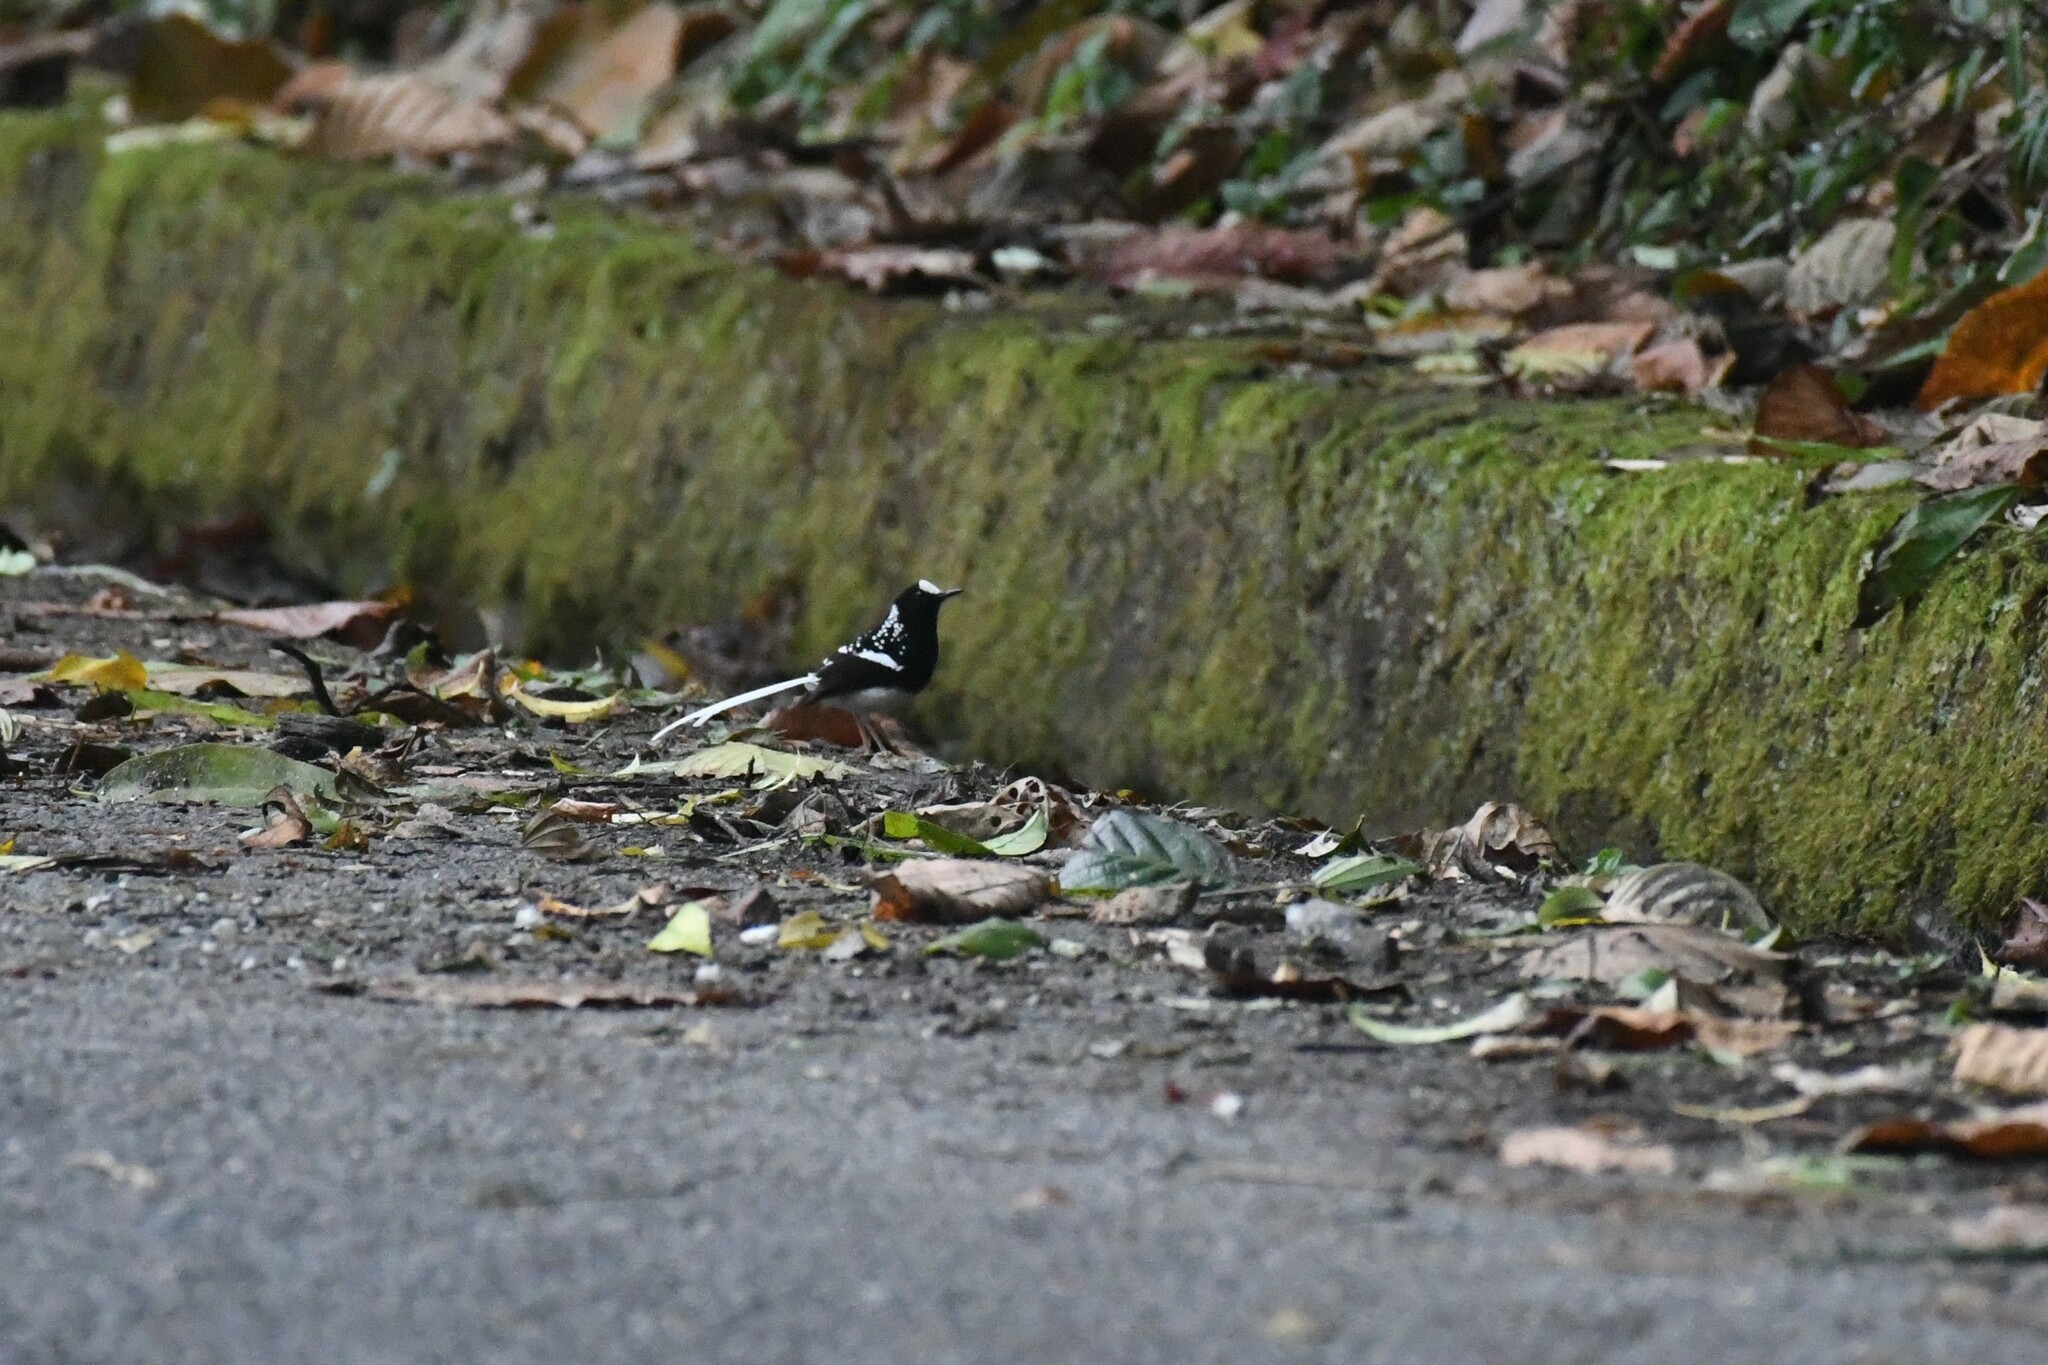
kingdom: Animalia
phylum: Chordata
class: Aves
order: Passeriformes
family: Muscicapidae
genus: Enicurus
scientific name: Enicurus maculatus
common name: Spotted forktail
